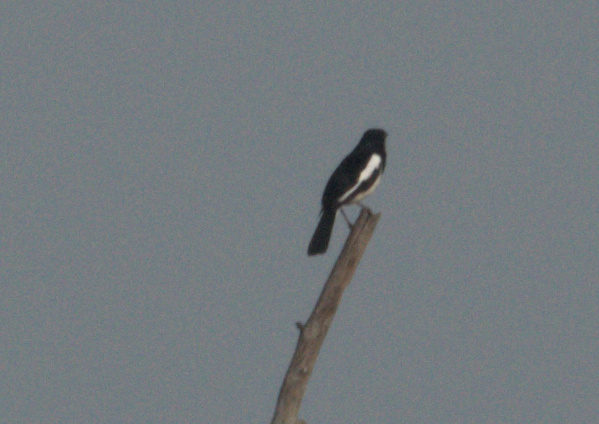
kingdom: Animalia
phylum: Chordata
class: Aves
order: Passeriformes
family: Muscicapidae
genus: Copsychus
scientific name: Copsychus saularis
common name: Oriental magpie-robin
